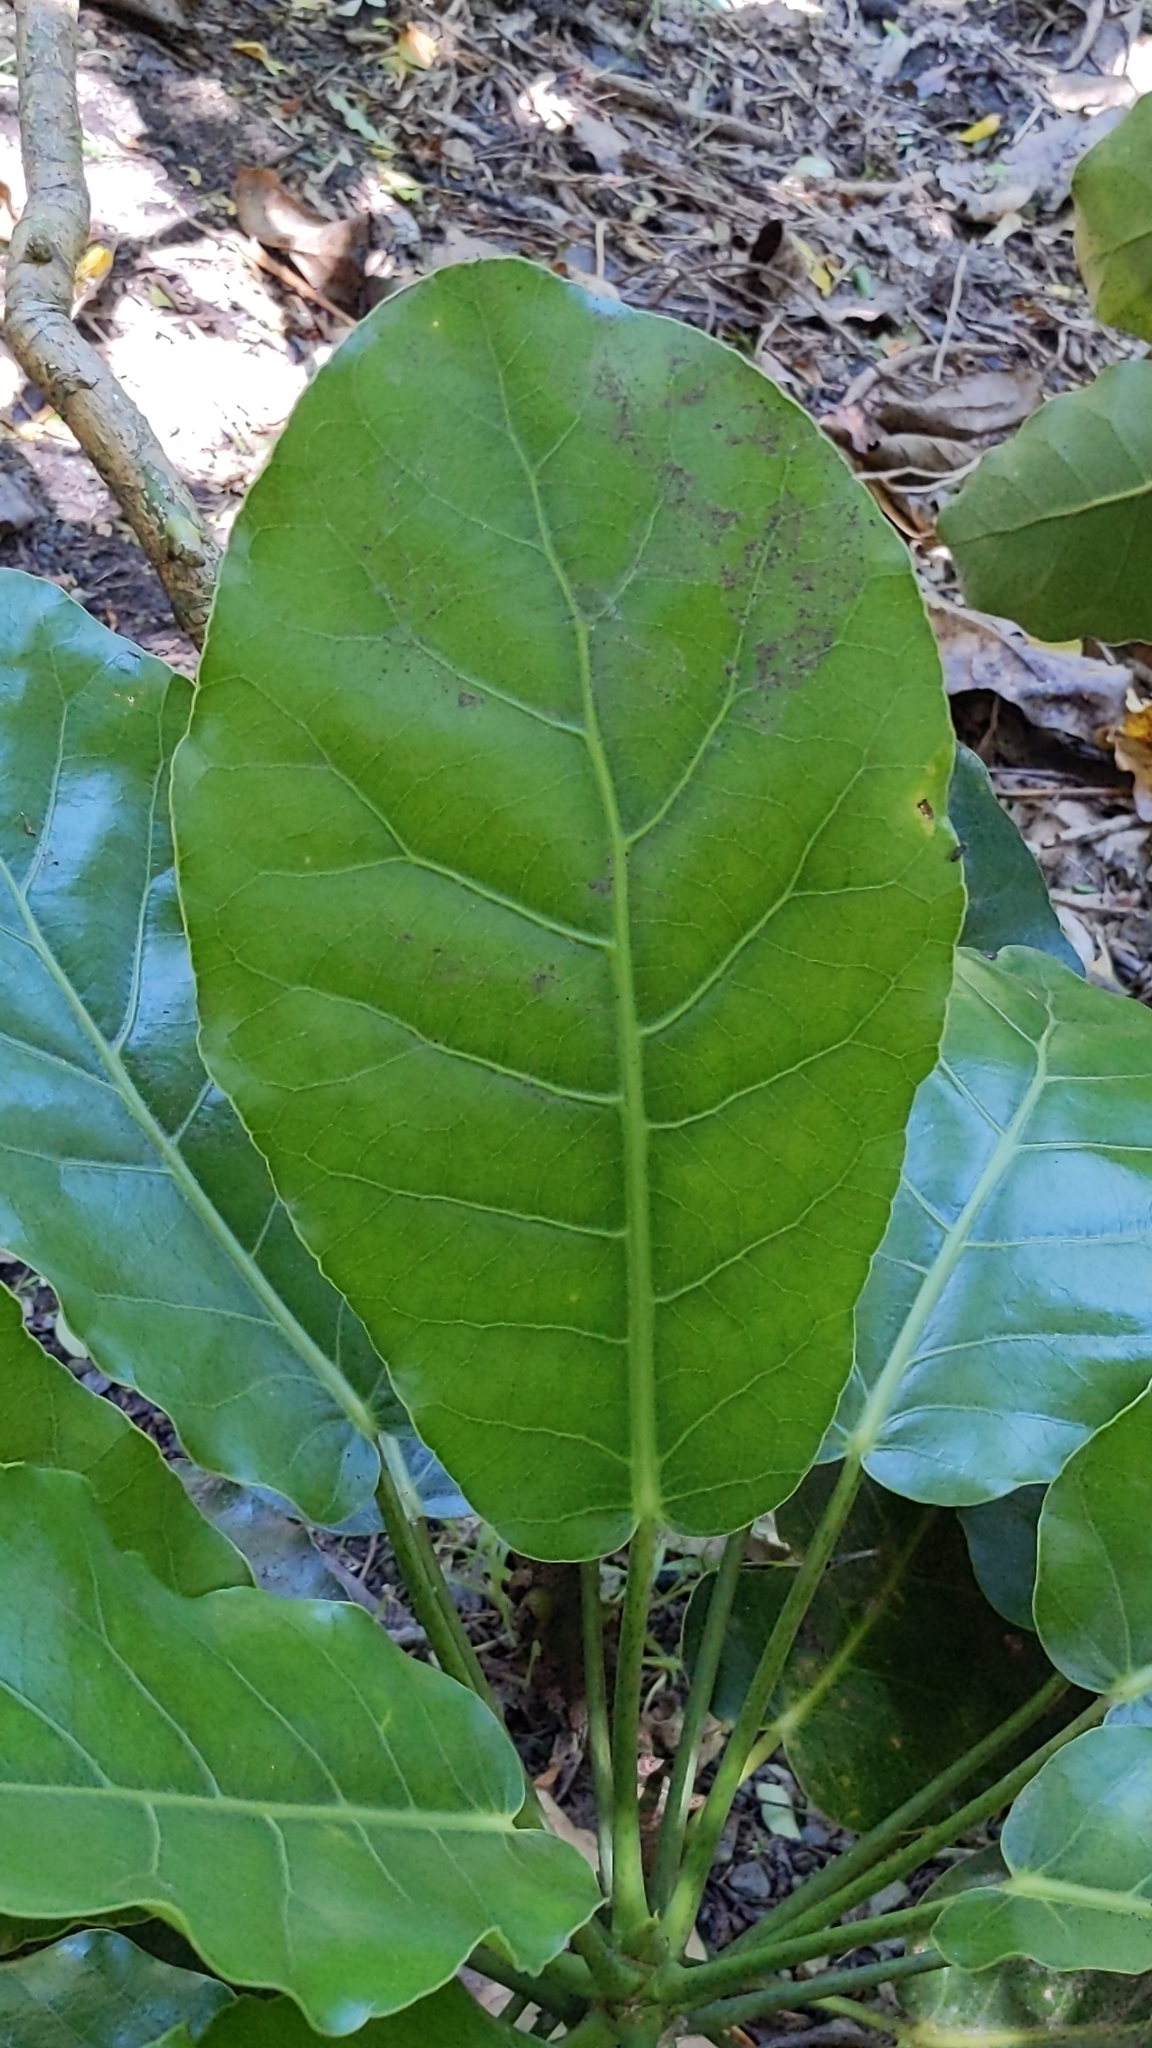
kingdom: Plantae
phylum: Tracheophyta
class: Magnoliopsida
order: Apiales
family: Araliaceae
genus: Meryta
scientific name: Meryta sinclairii
